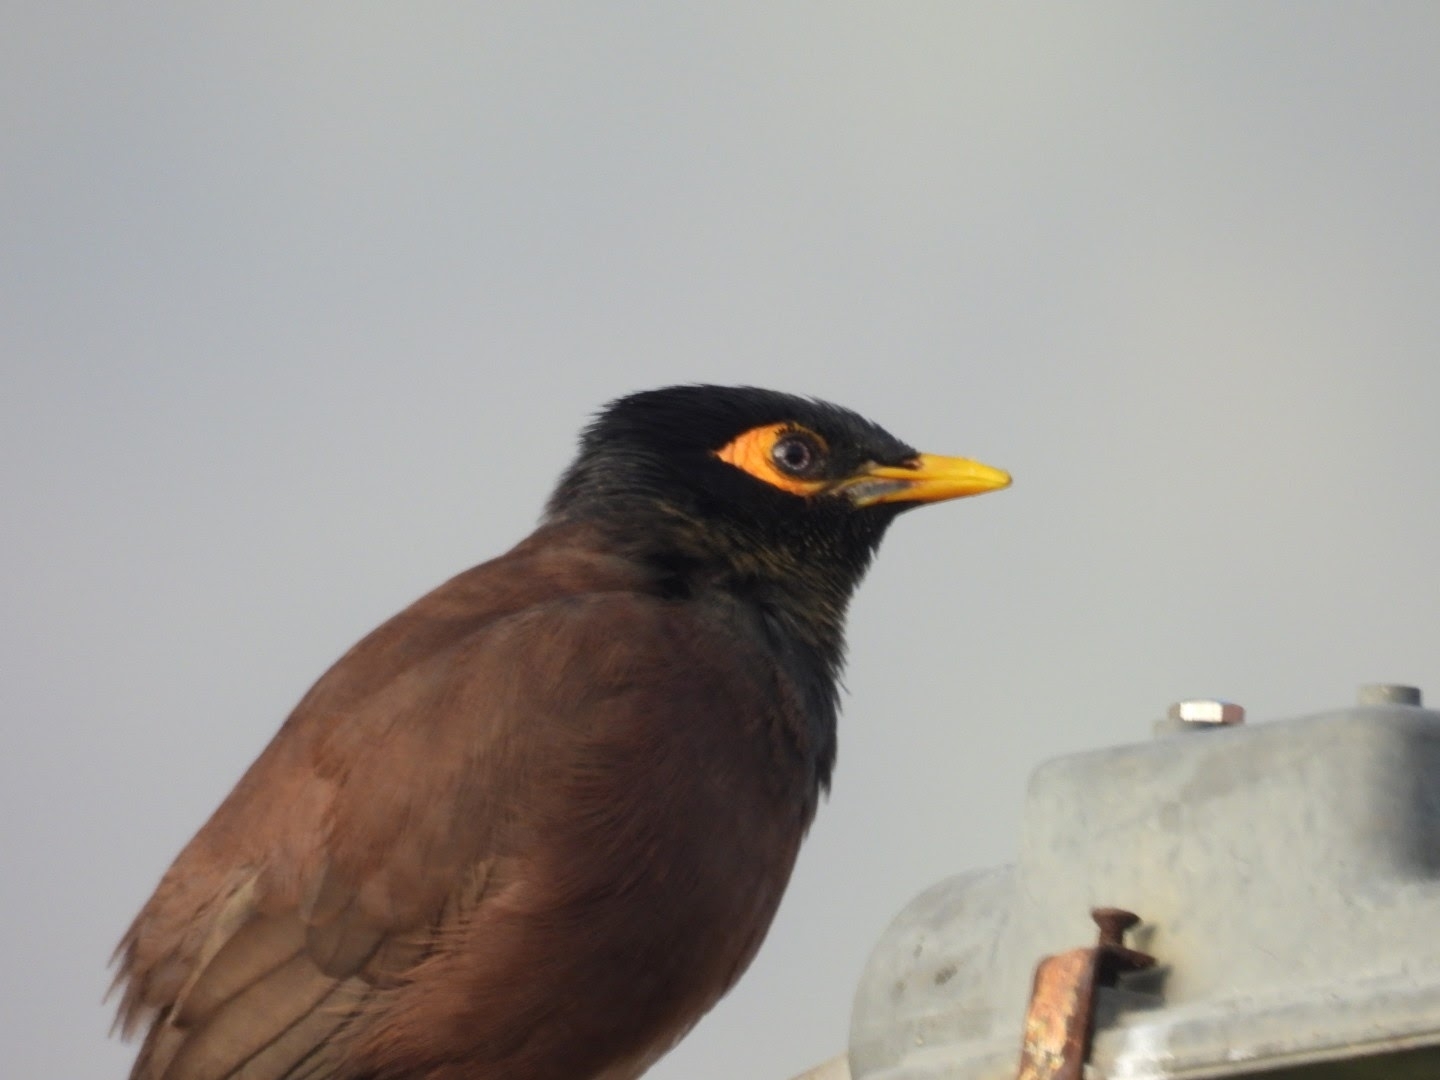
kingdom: Animalia
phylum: Chordata
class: Aves
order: Passeriformes
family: Sturnidae
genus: Acridotheres
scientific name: Acridotheres tristis
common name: Common myna
